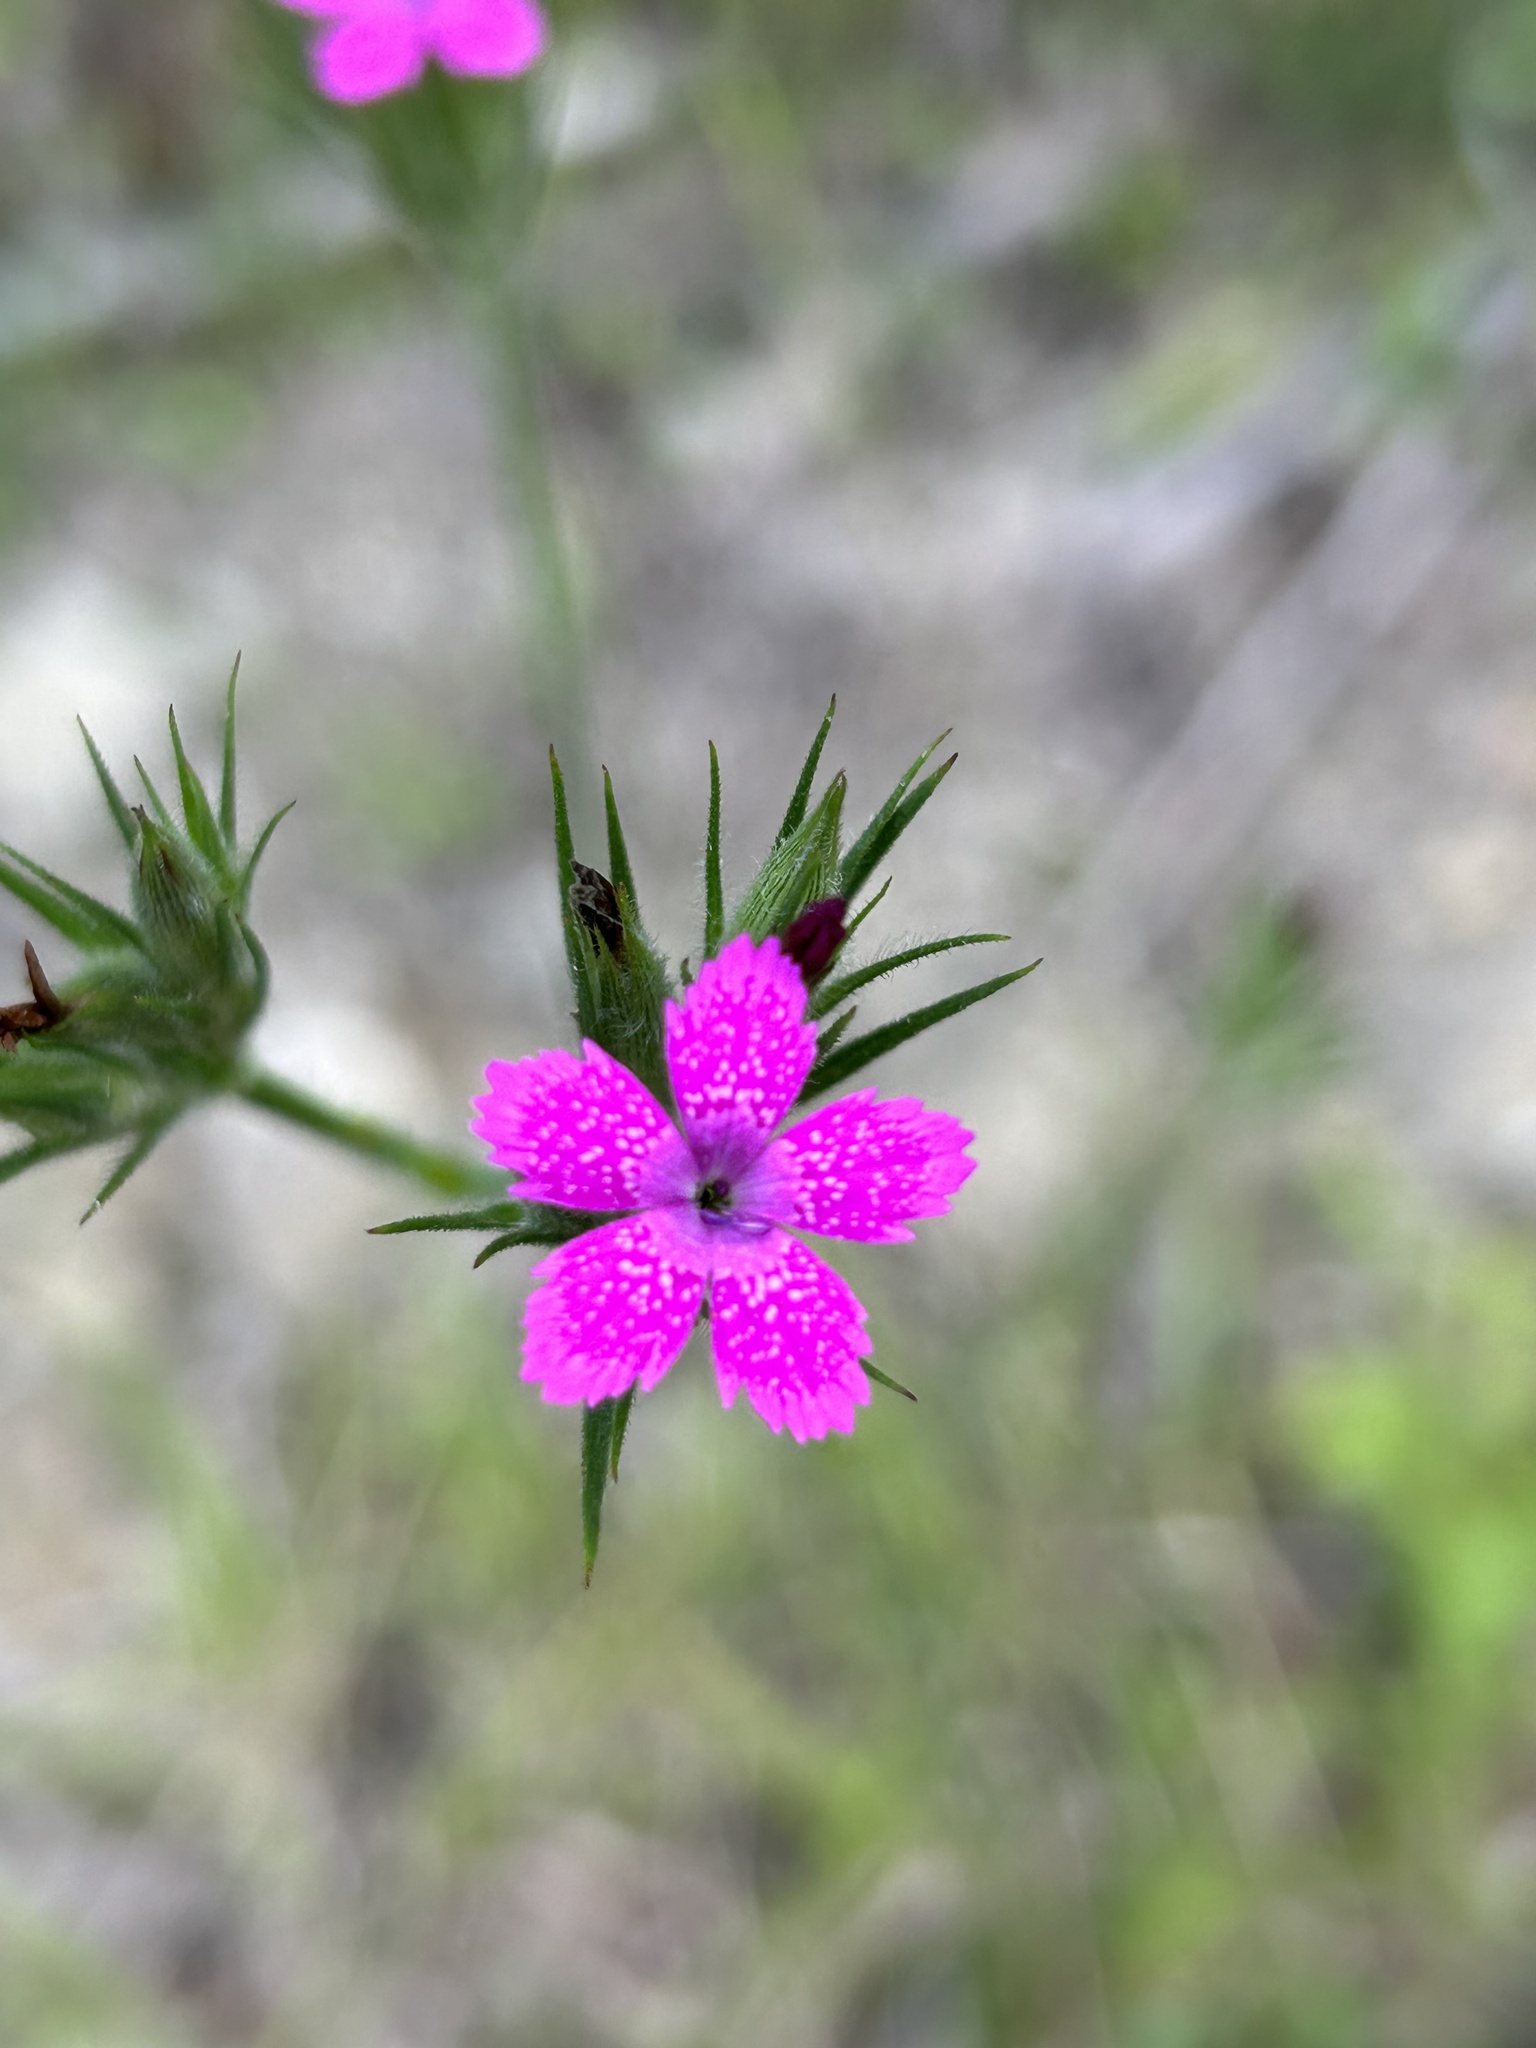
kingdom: Plantae
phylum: Tracheophyta
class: Magnoliopsida
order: Caryophyllales
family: Caryophyllaceae
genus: Dianthus
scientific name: Dianthus armeria
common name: Deptford pink
